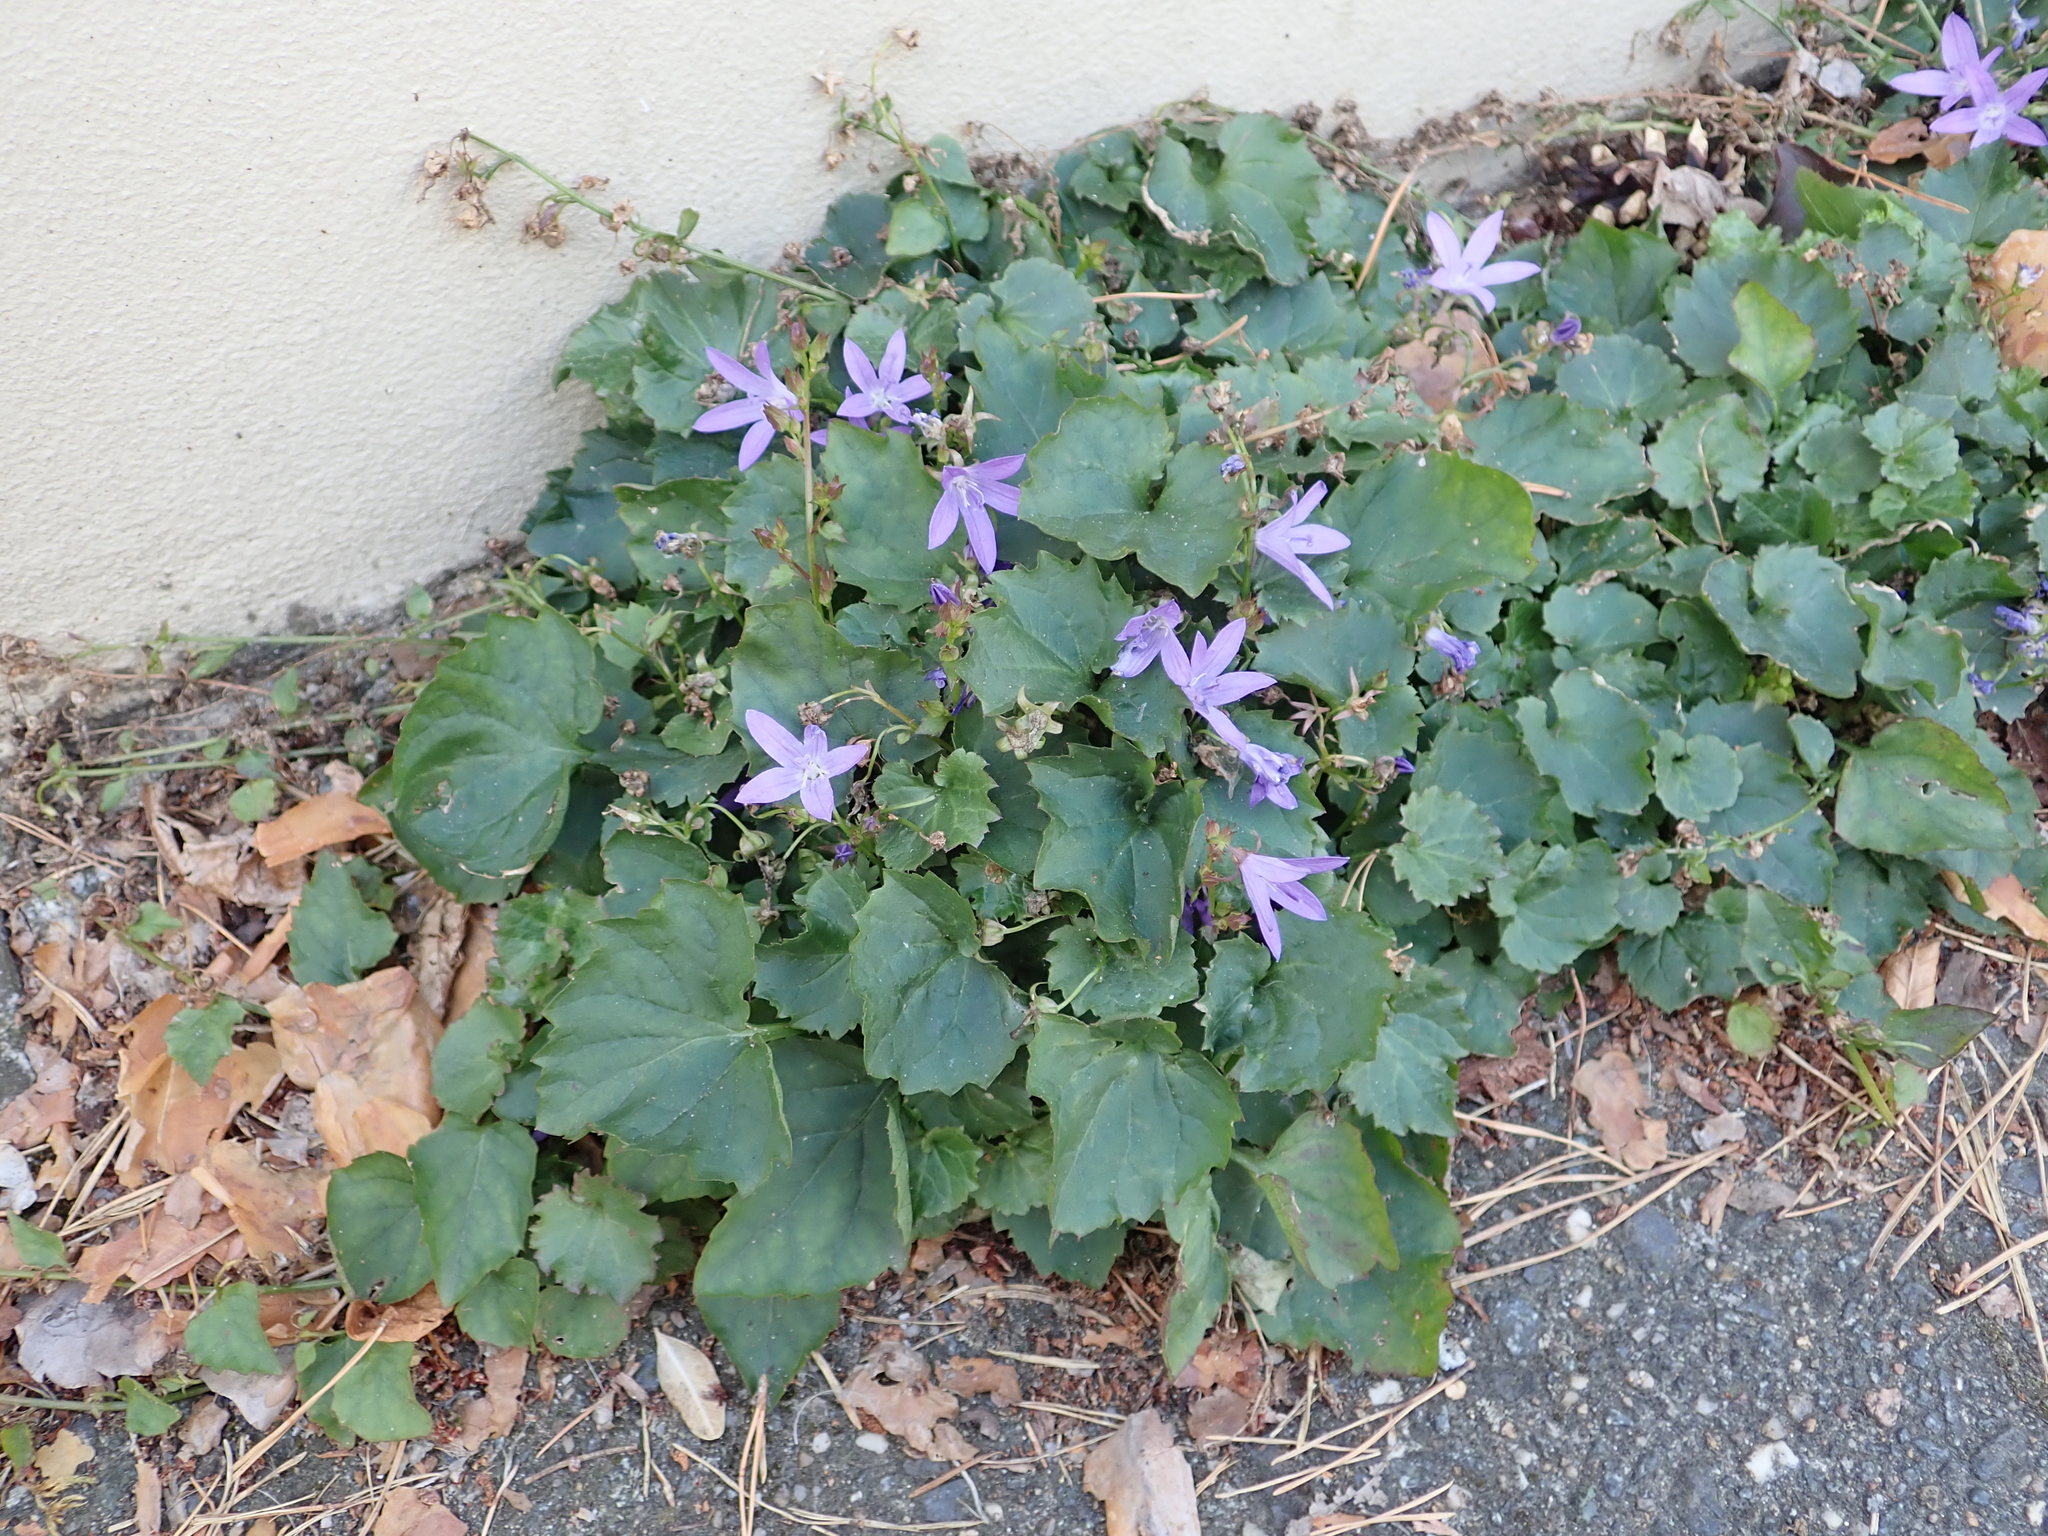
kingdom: Plantae
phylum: Tracheophyta
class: Magnoliopsida
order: Asterales
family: Campanulaceae
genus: Campanula
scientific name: Campanula poscharskyana
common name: Trailing bellflower
